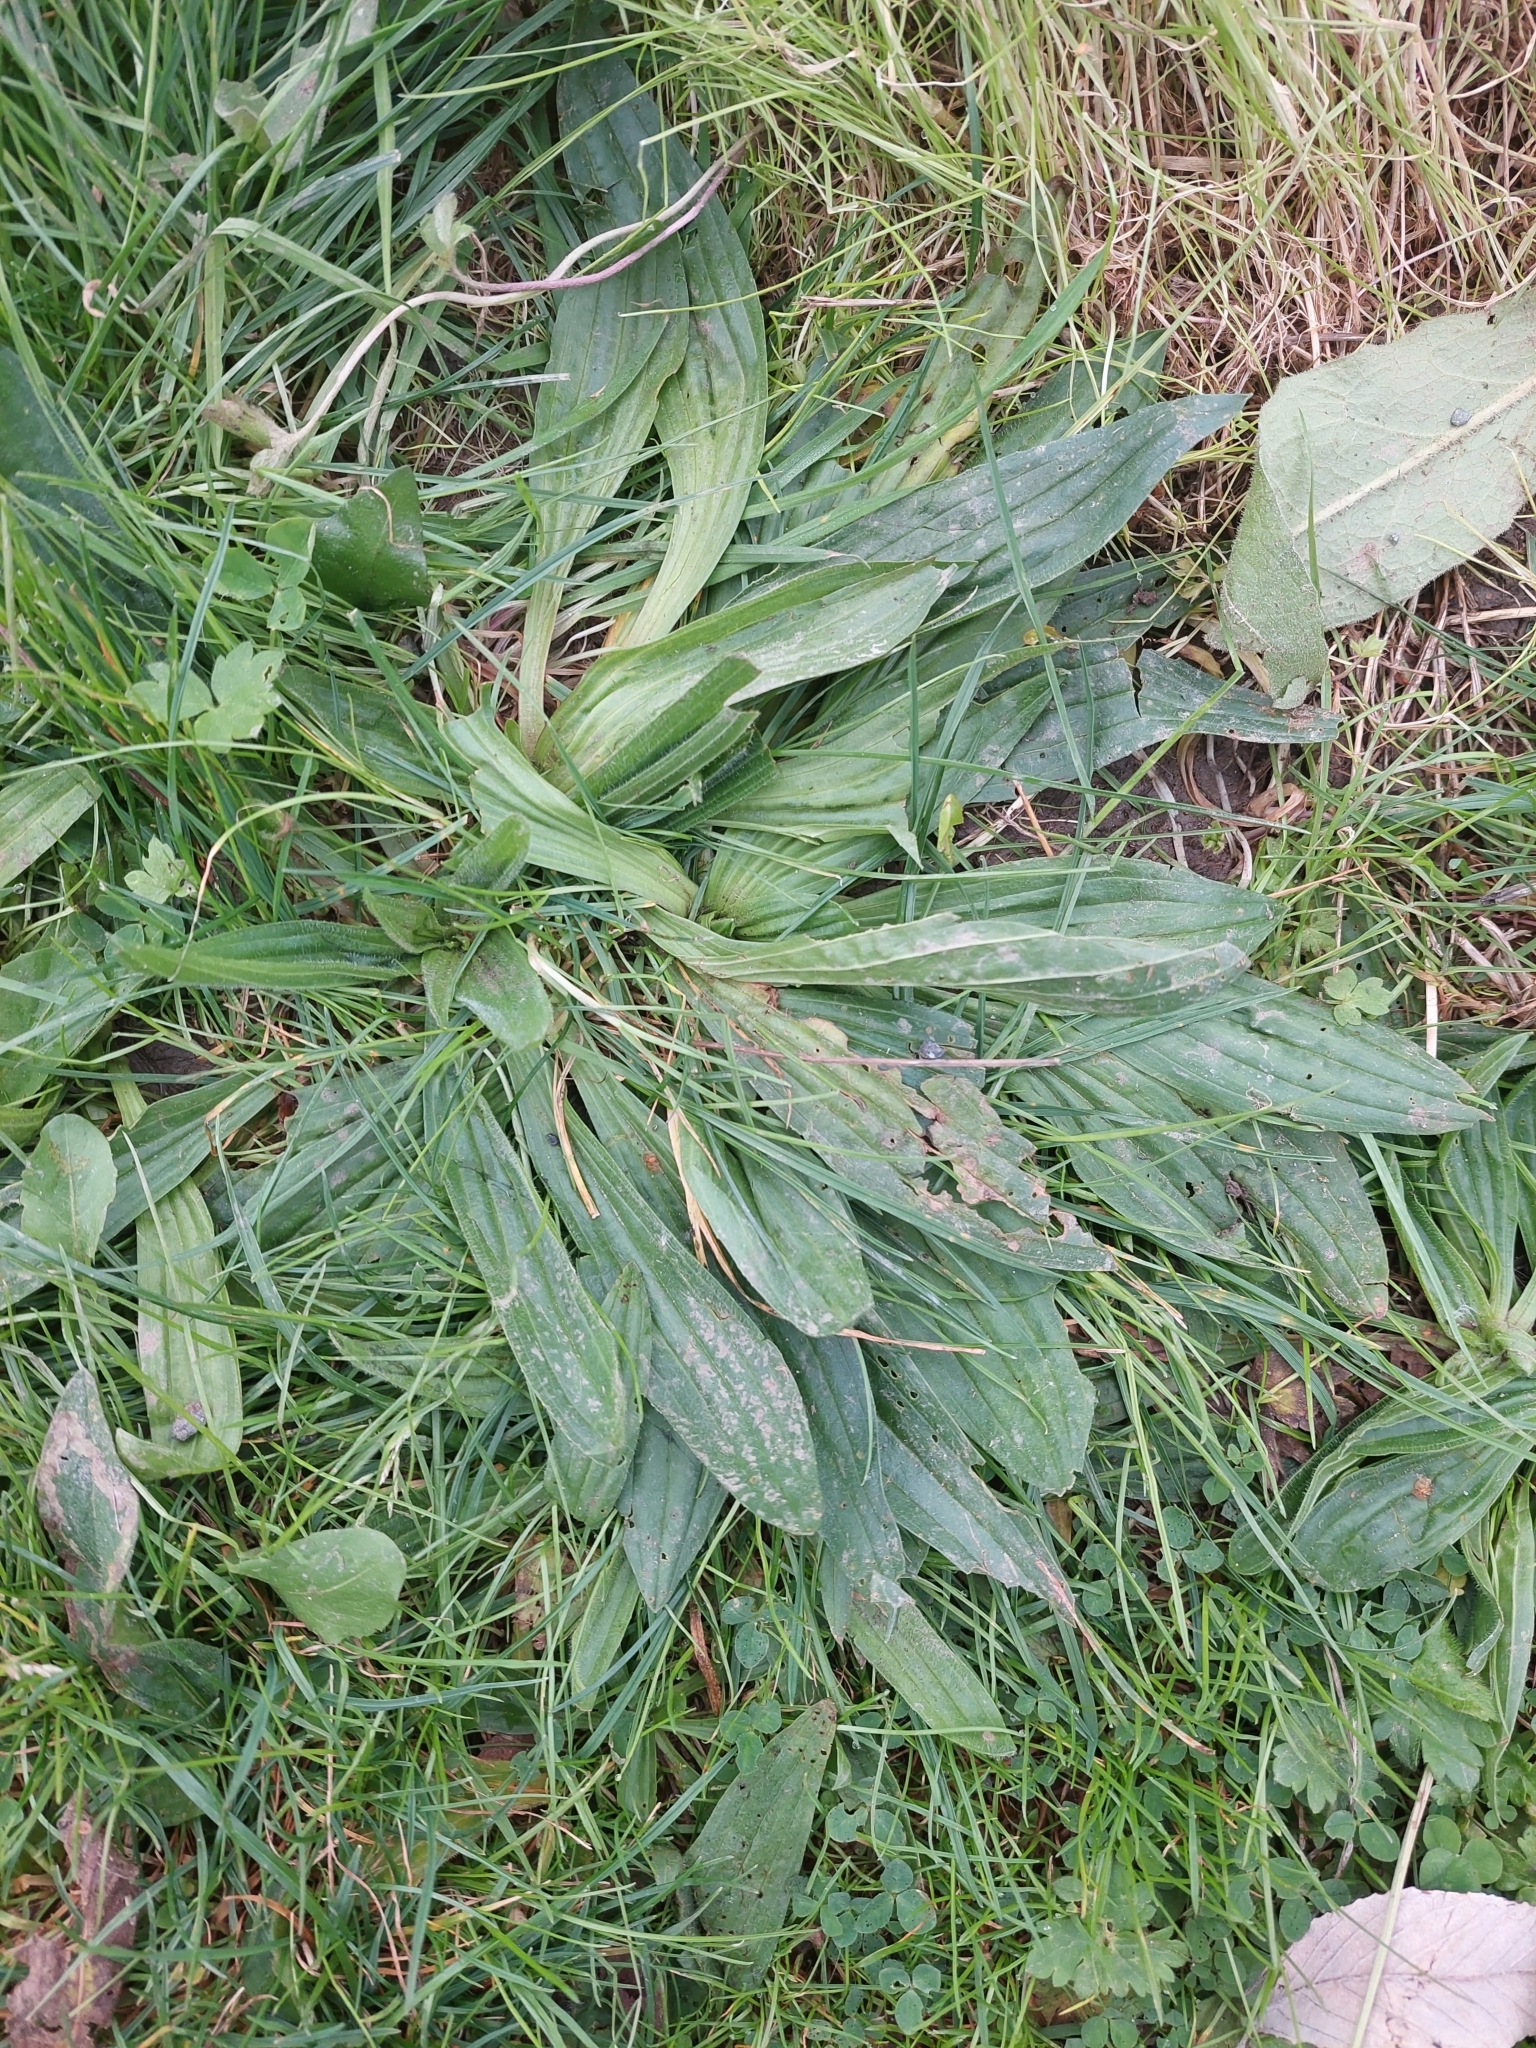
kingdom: Plantae
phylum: Tracheophyta
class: Magnoliopsida
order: Lamiales
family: Plantaginaceae
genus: Plantago
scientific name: Plantago lanceolata
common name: Ribwort plantain
